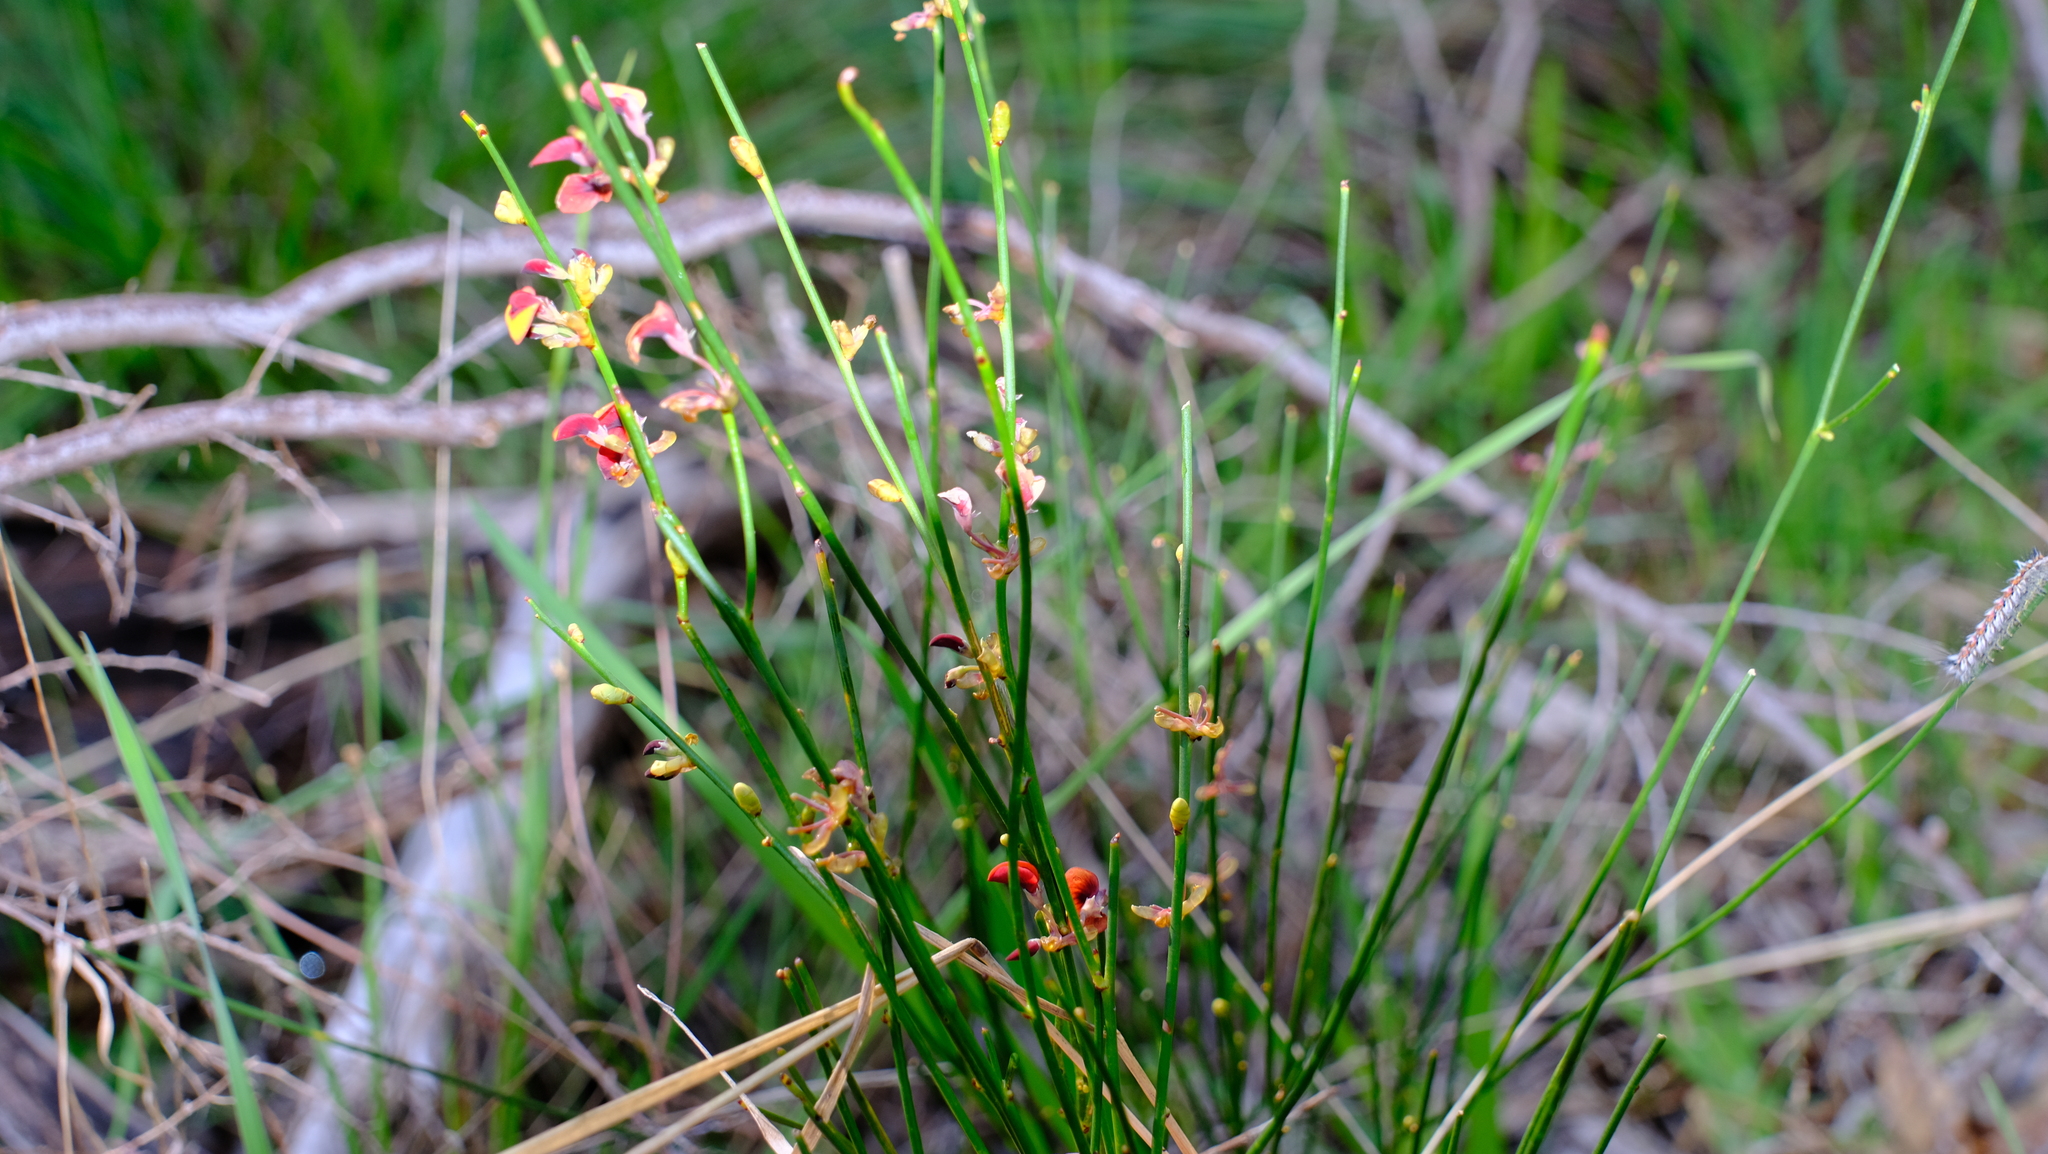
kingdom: Plantae
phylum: Tracheophyta
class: Magnoliopsida
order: Fabales
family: Fabaceae
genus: Daviesia
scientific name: Daviesia triflora
